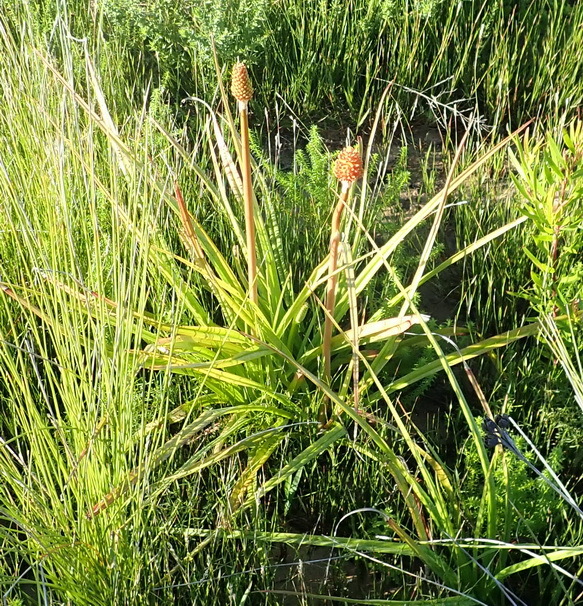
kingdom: Plantae
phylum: Tracheophyta
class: Liliopsida
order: Asparagales
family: Asphodelaceae
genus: Kniphofia
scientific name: Kniphofia uvaria
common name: Red-hot-poker
